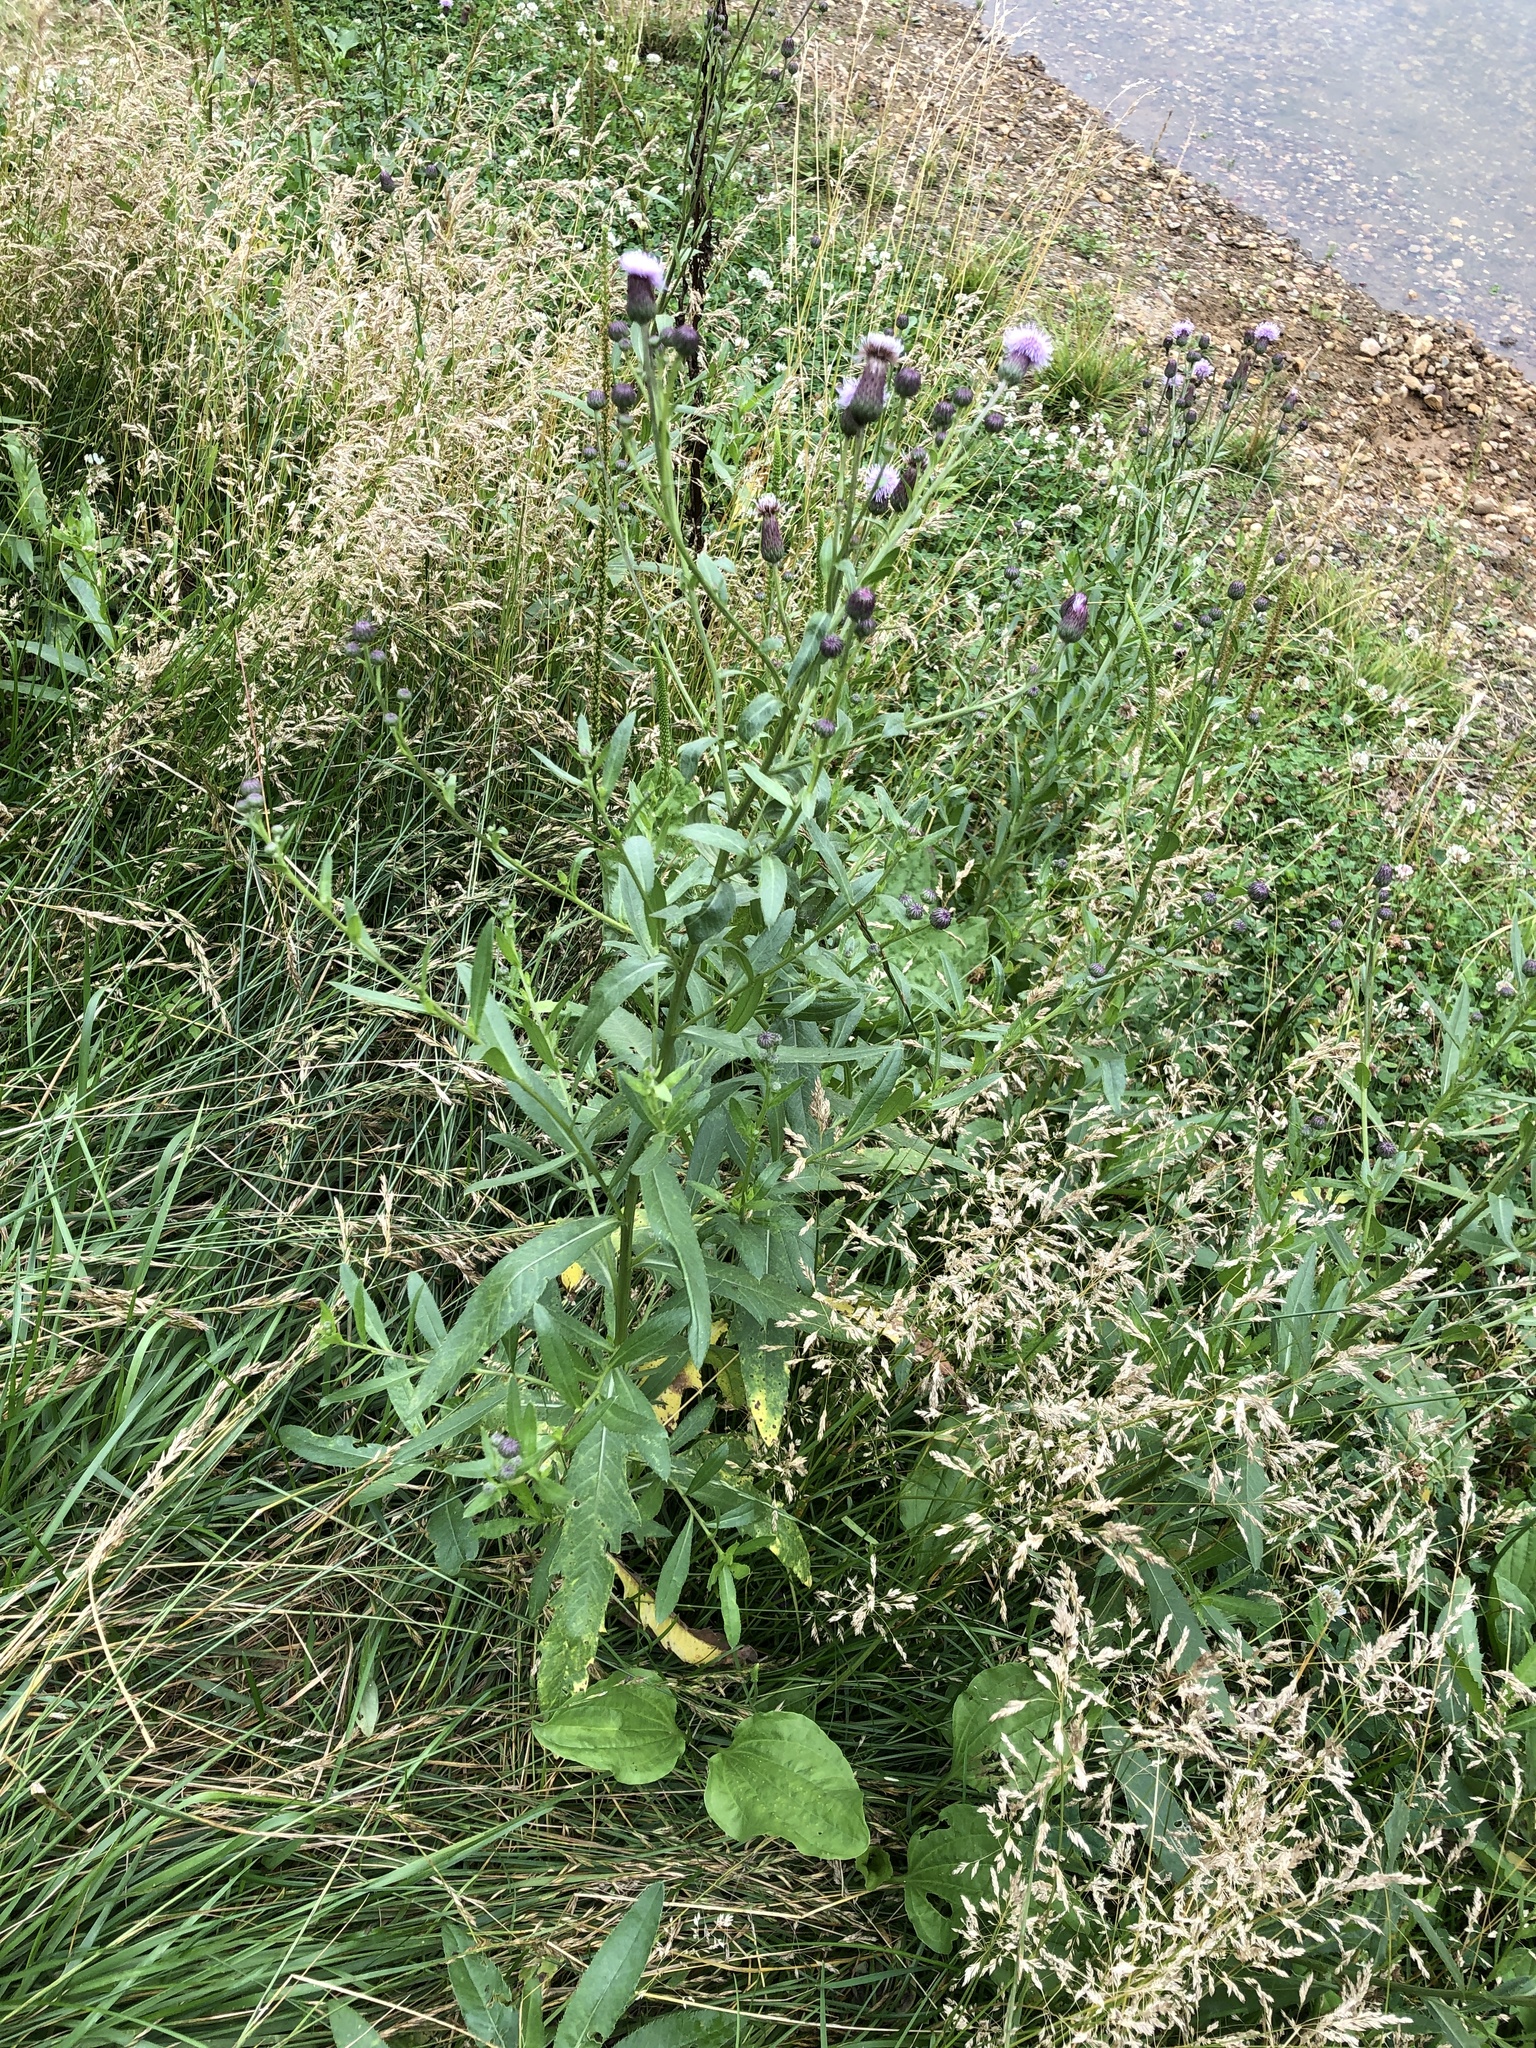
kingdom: Plantae
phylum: Tracheophyta
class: Magnoliopsida
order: Asterales
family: Asteraceae
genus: Cirsium
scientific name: Cirsium arvense
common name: Creeping thistle
